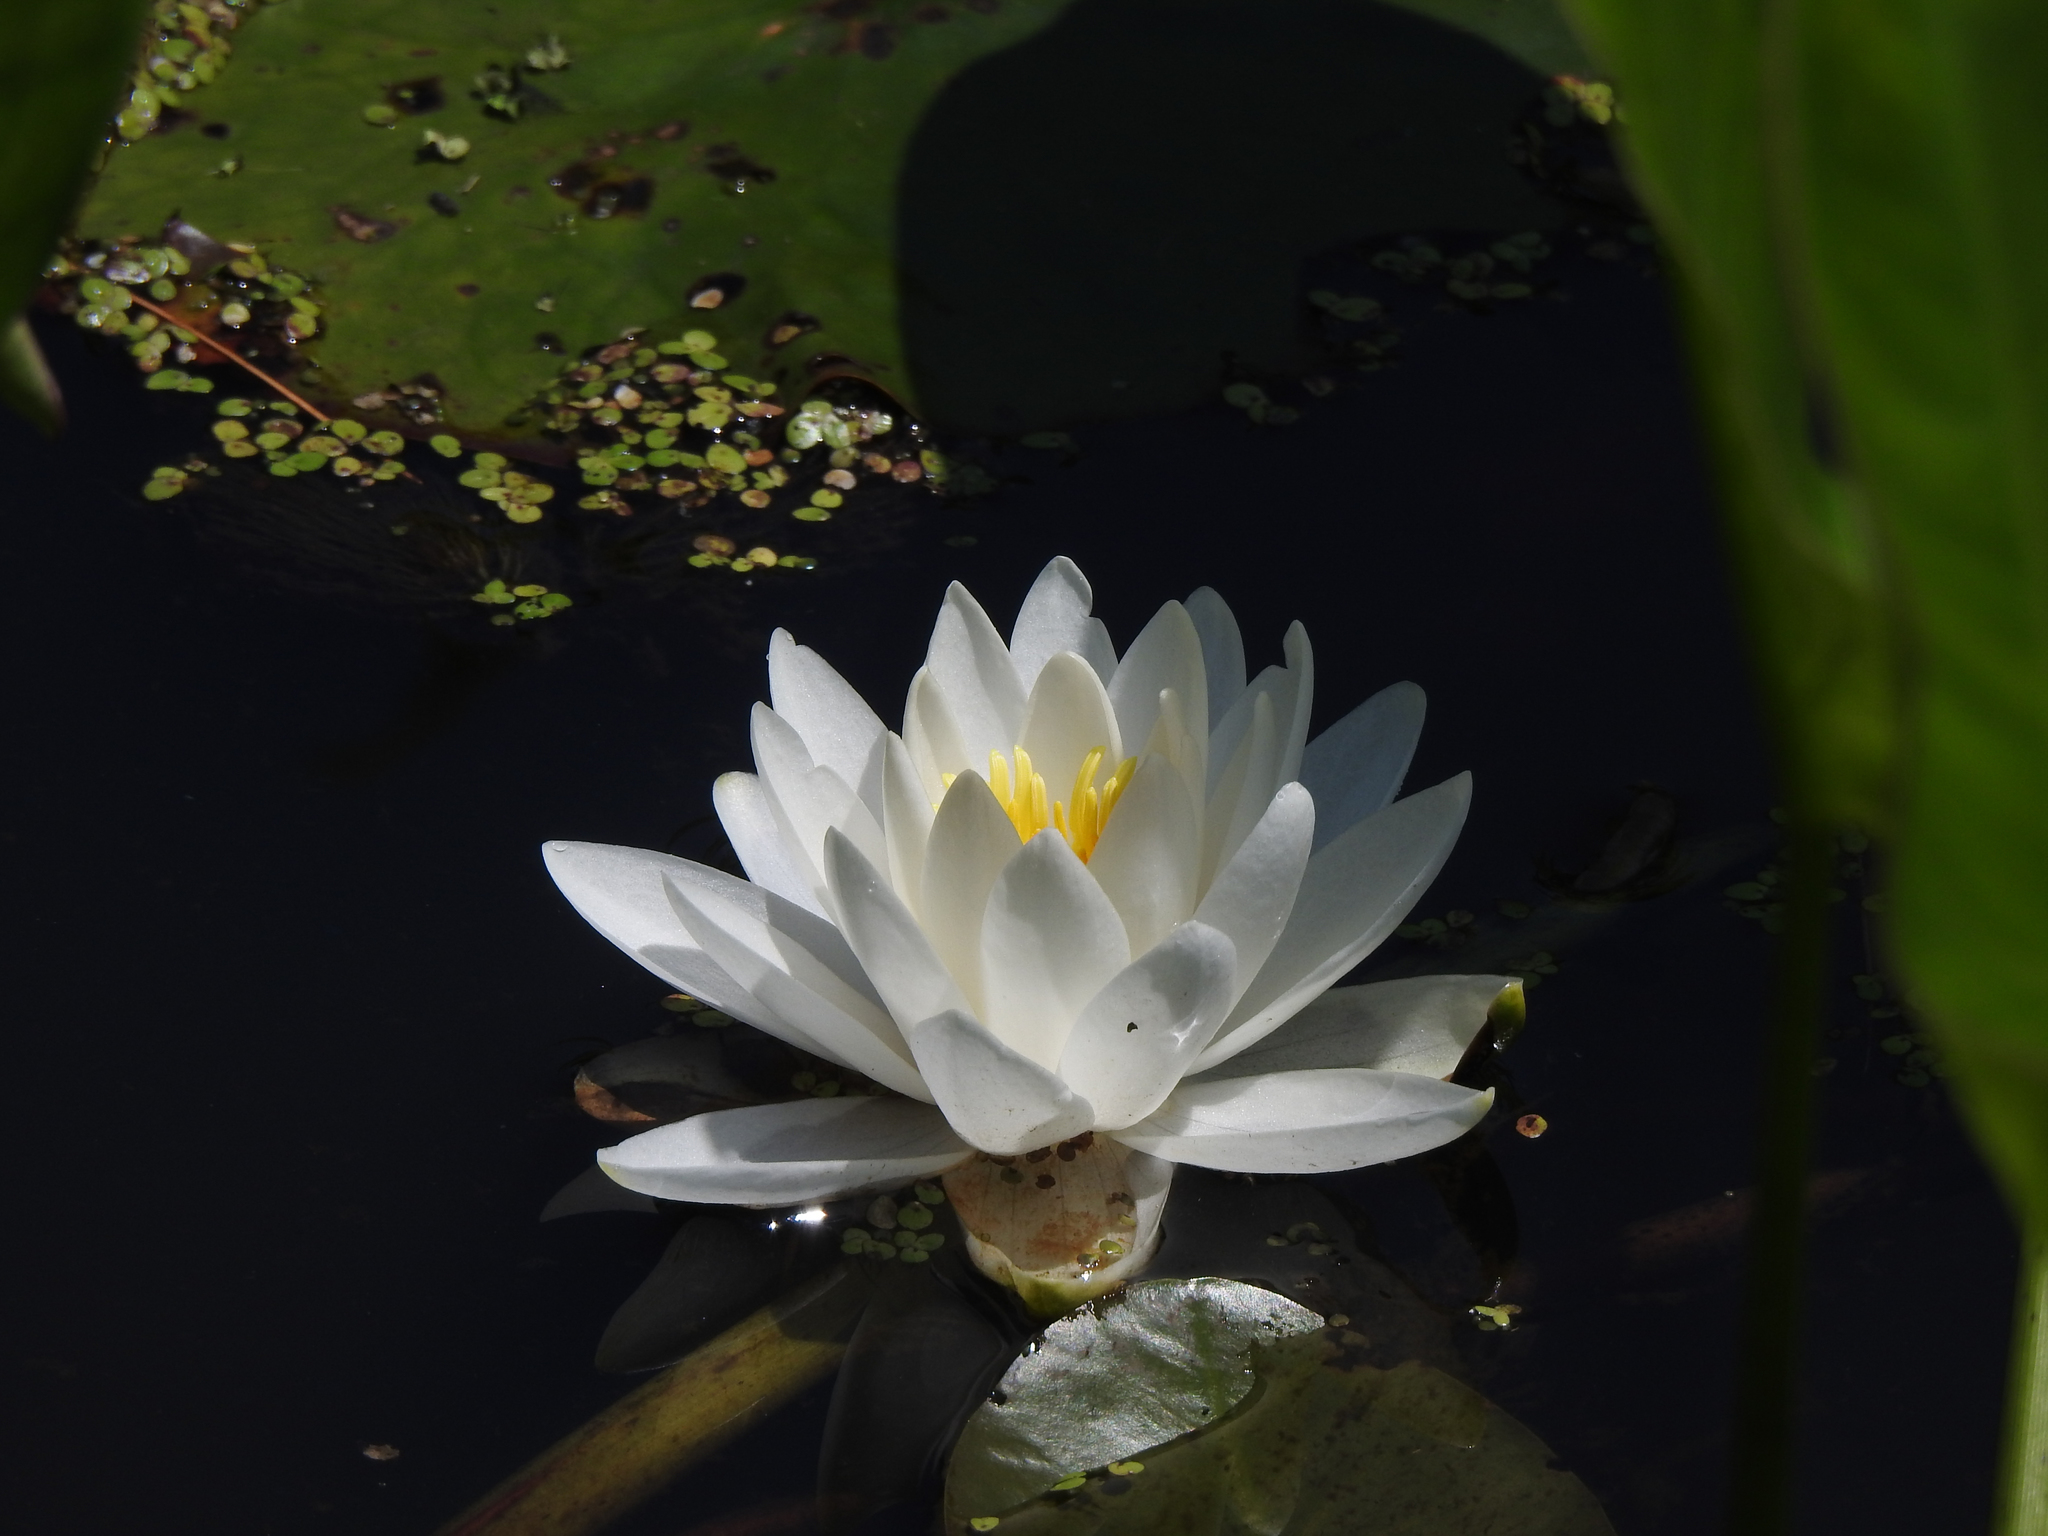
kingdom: Plantae
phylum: Tracheophyta
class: Magnoliopsida
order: Nymphaeales
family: Nymphaeaceae
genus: Nymphaea
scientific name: Nymphaea odorata
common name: Fragrant water-lily
